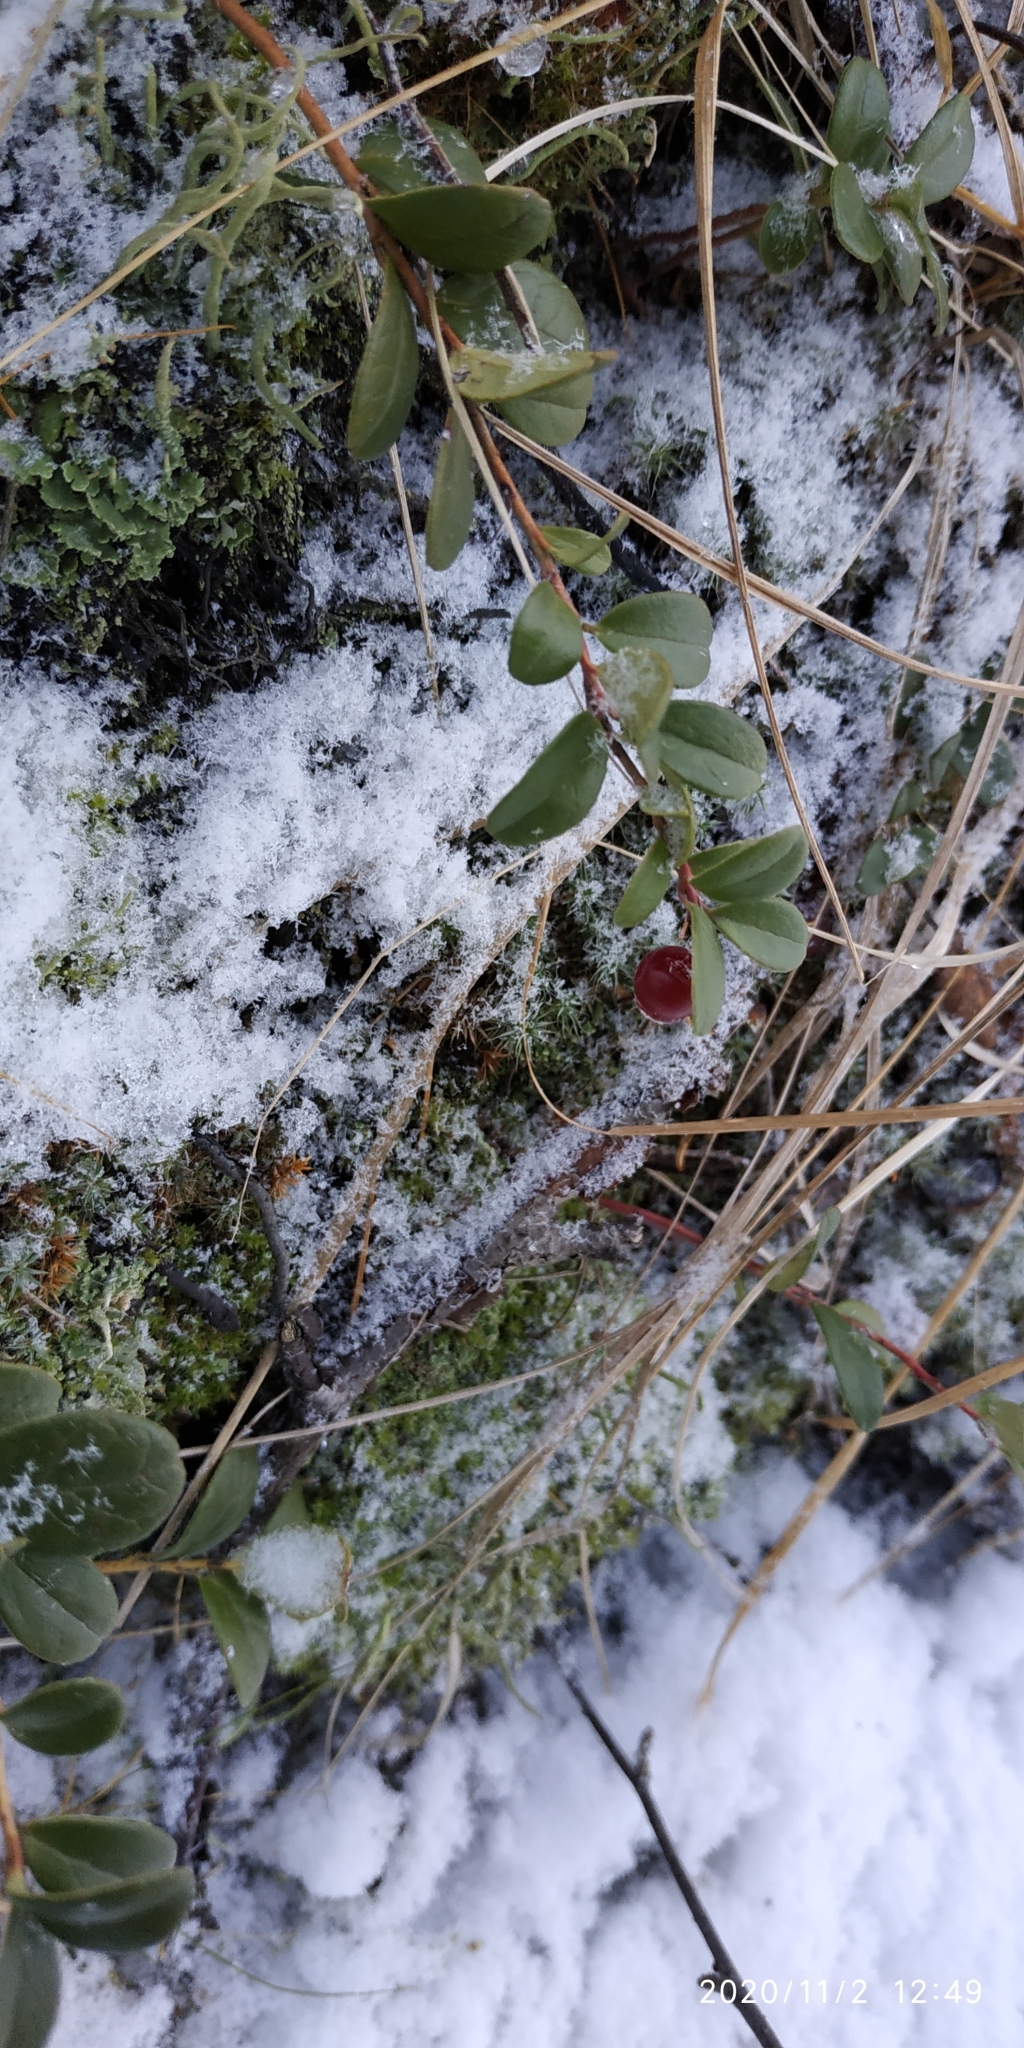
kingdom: Plantae
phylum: Tracheophyta
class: Magnoliopsida
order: Ericales
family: Ericaceae
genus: Vaccinium
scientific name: Vaccinium vitis-idaea
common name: Cowberry
